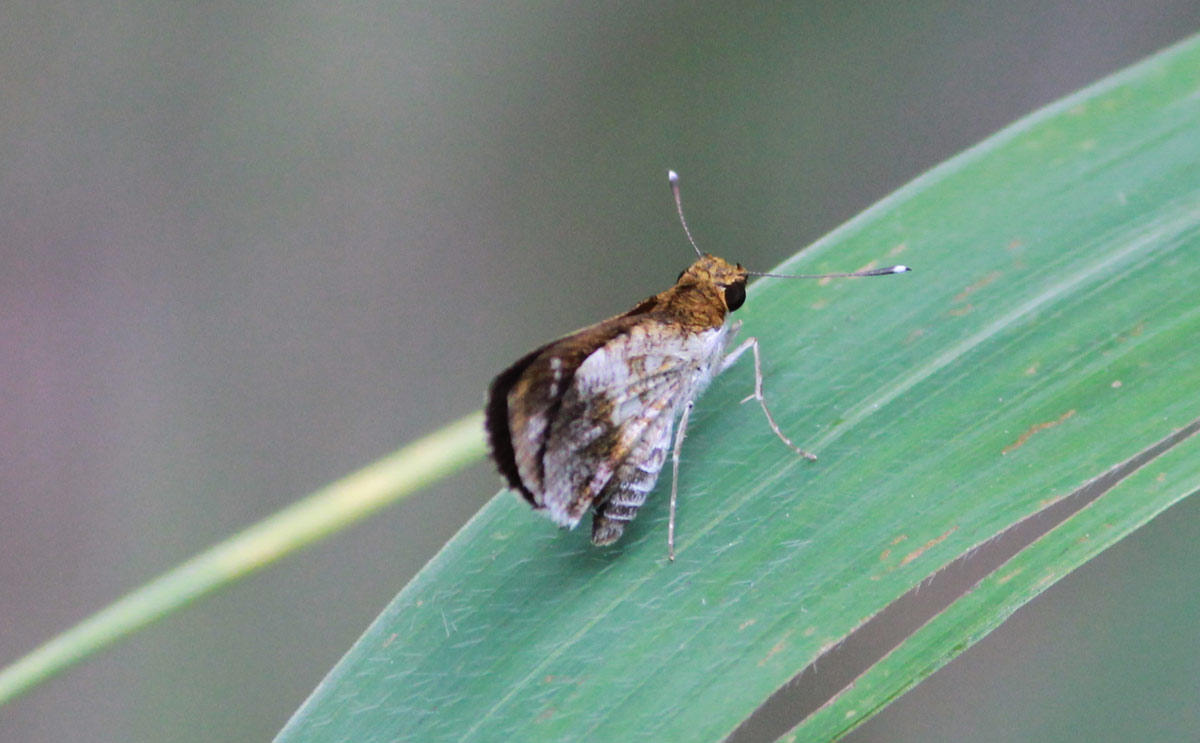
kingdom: Animalia
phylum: Arthropoda
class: Insecta
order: Lepidoptera
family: Hesperiidae
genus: Acleros
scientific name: Acleros mackenii
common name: Shade dart
